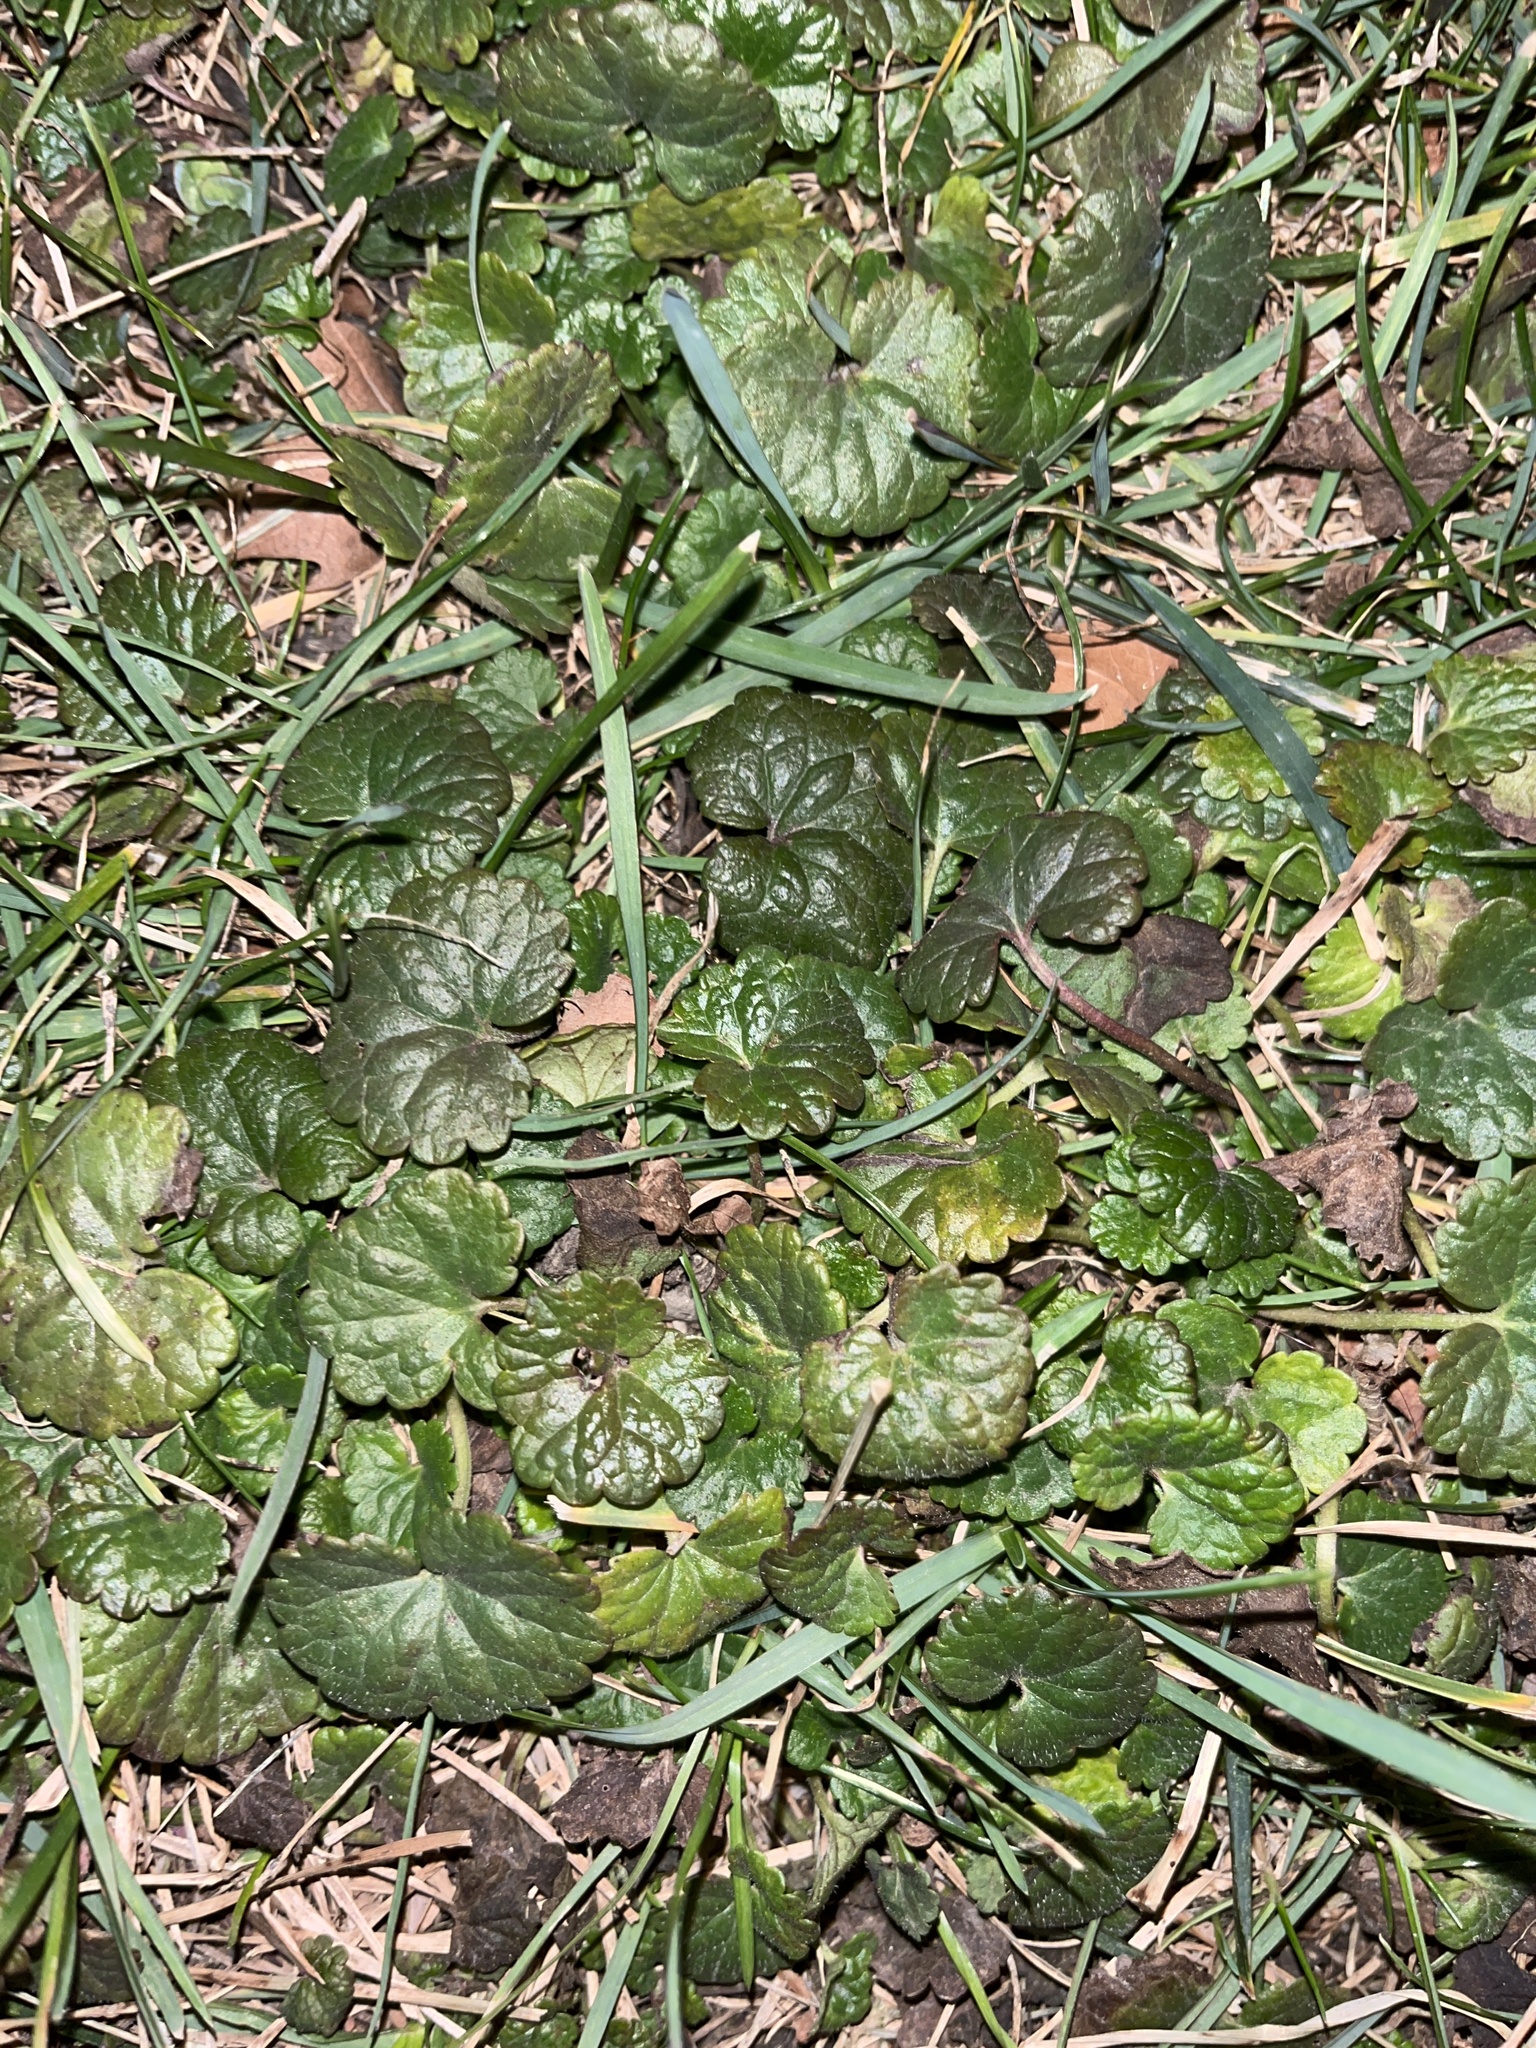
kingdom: Plantae
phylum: Tracheophyta
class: Magnoliopsida
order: Lamiales
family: Lamiaceae
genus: Glechoma
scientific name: Glechoma hederacea
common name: Ground ivy
